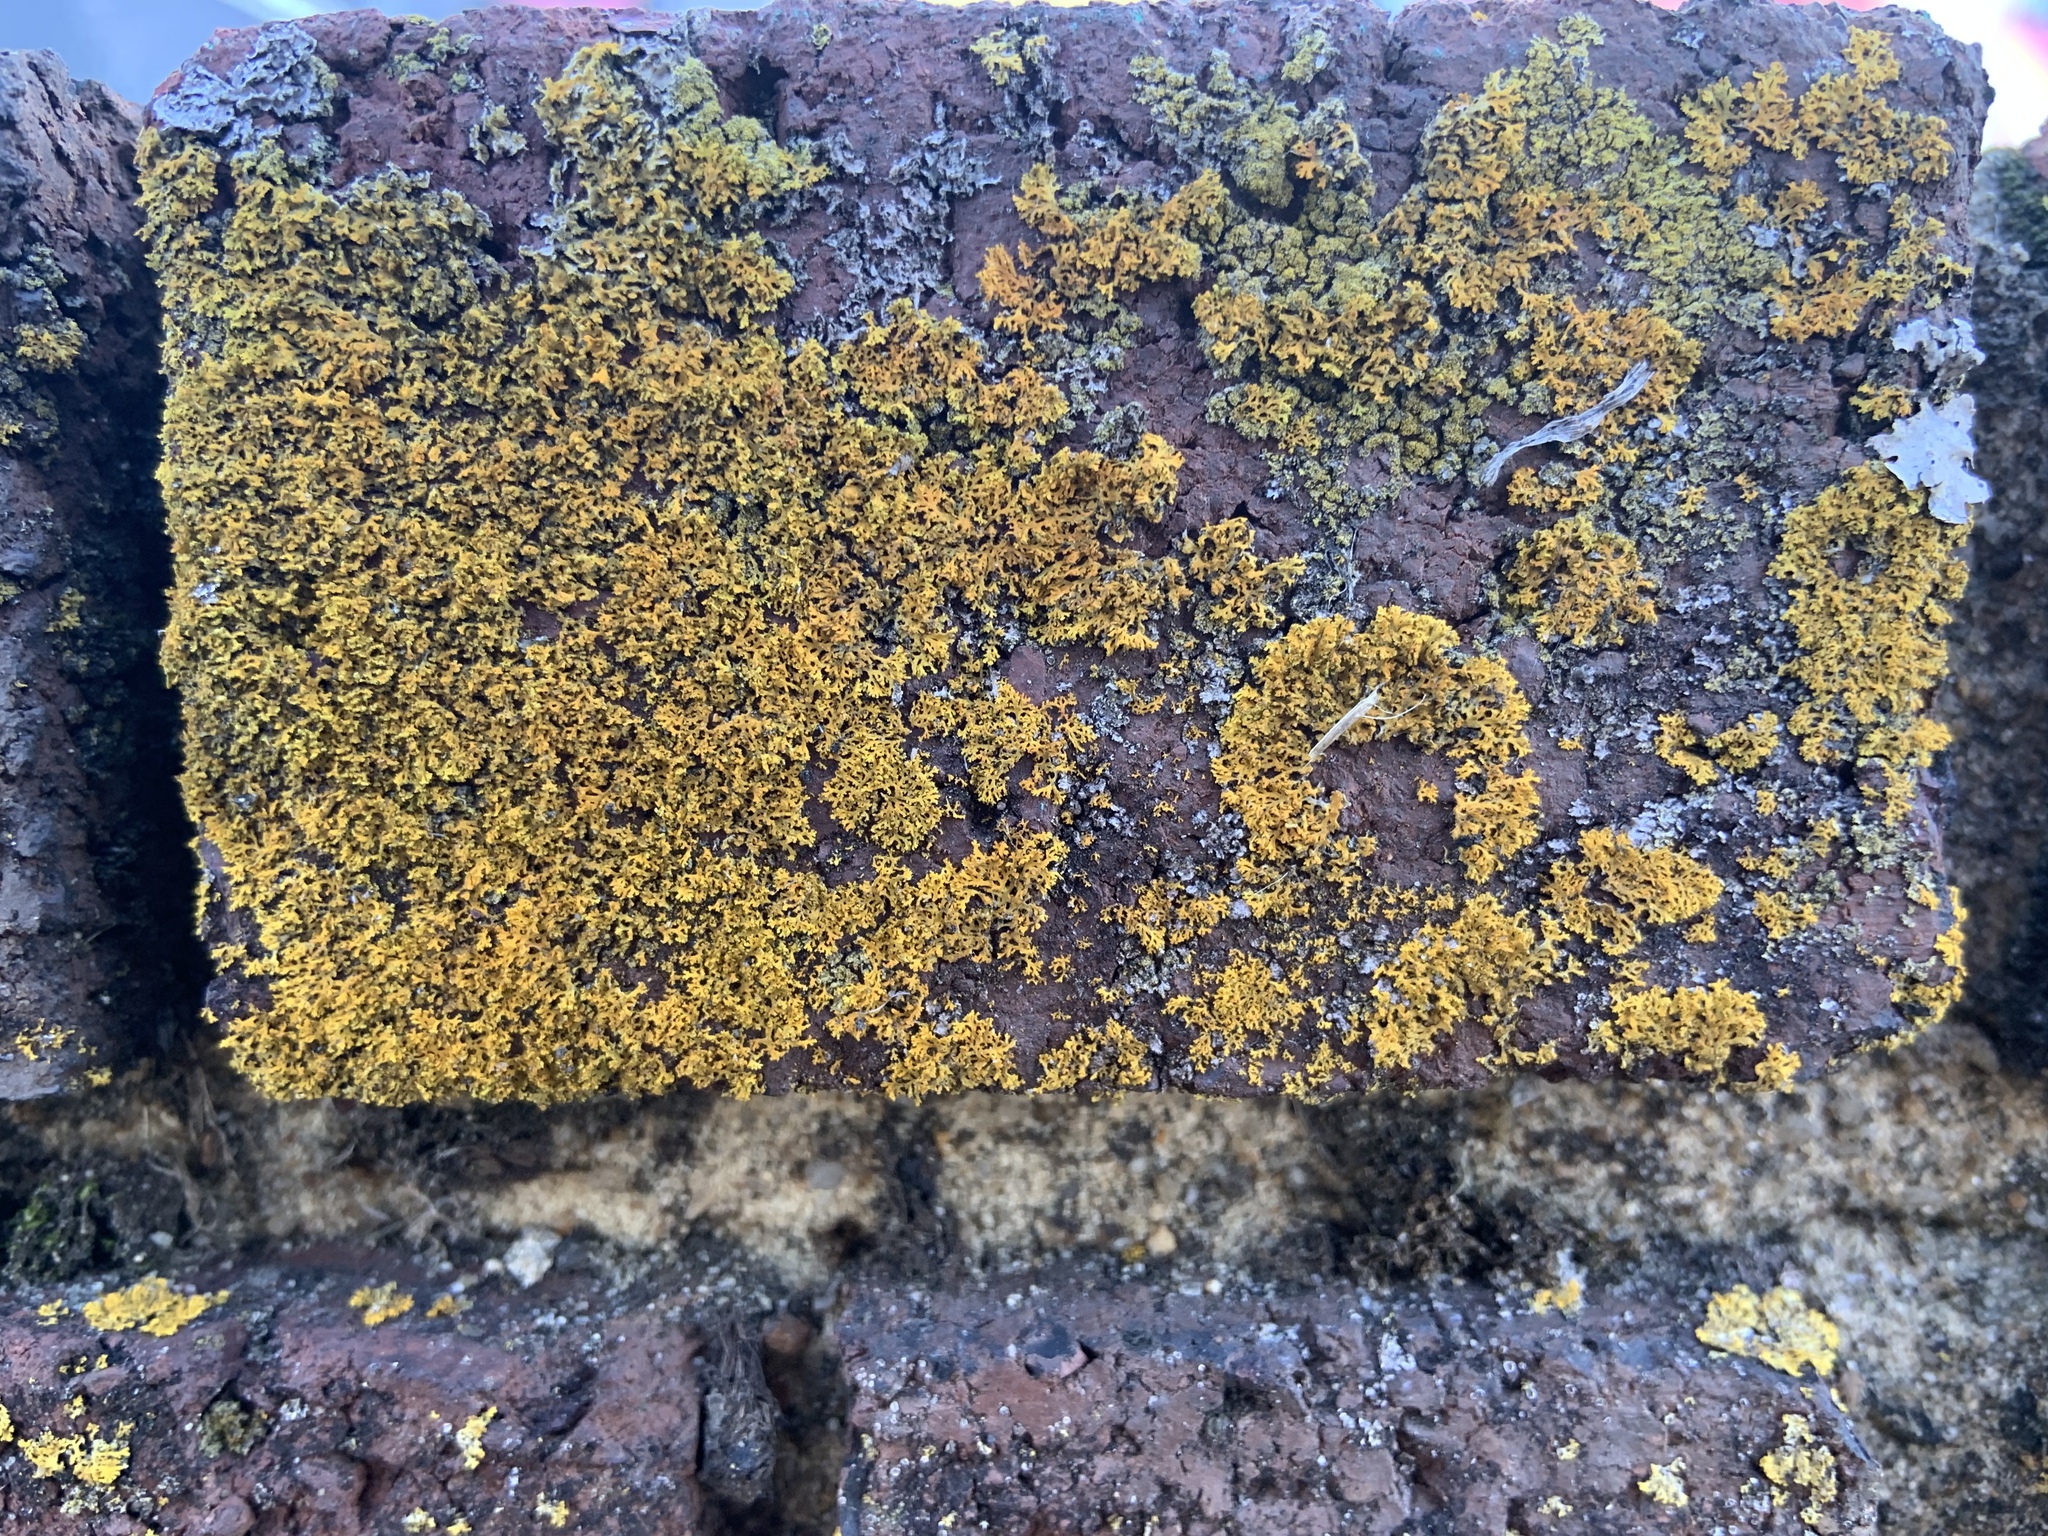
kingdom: Fungi
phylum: Ascomycota
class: Lecanoromycetes
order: Teloschistales
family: Teloschistaceae
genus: Gallowayella
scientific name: Gallowayella weberi
